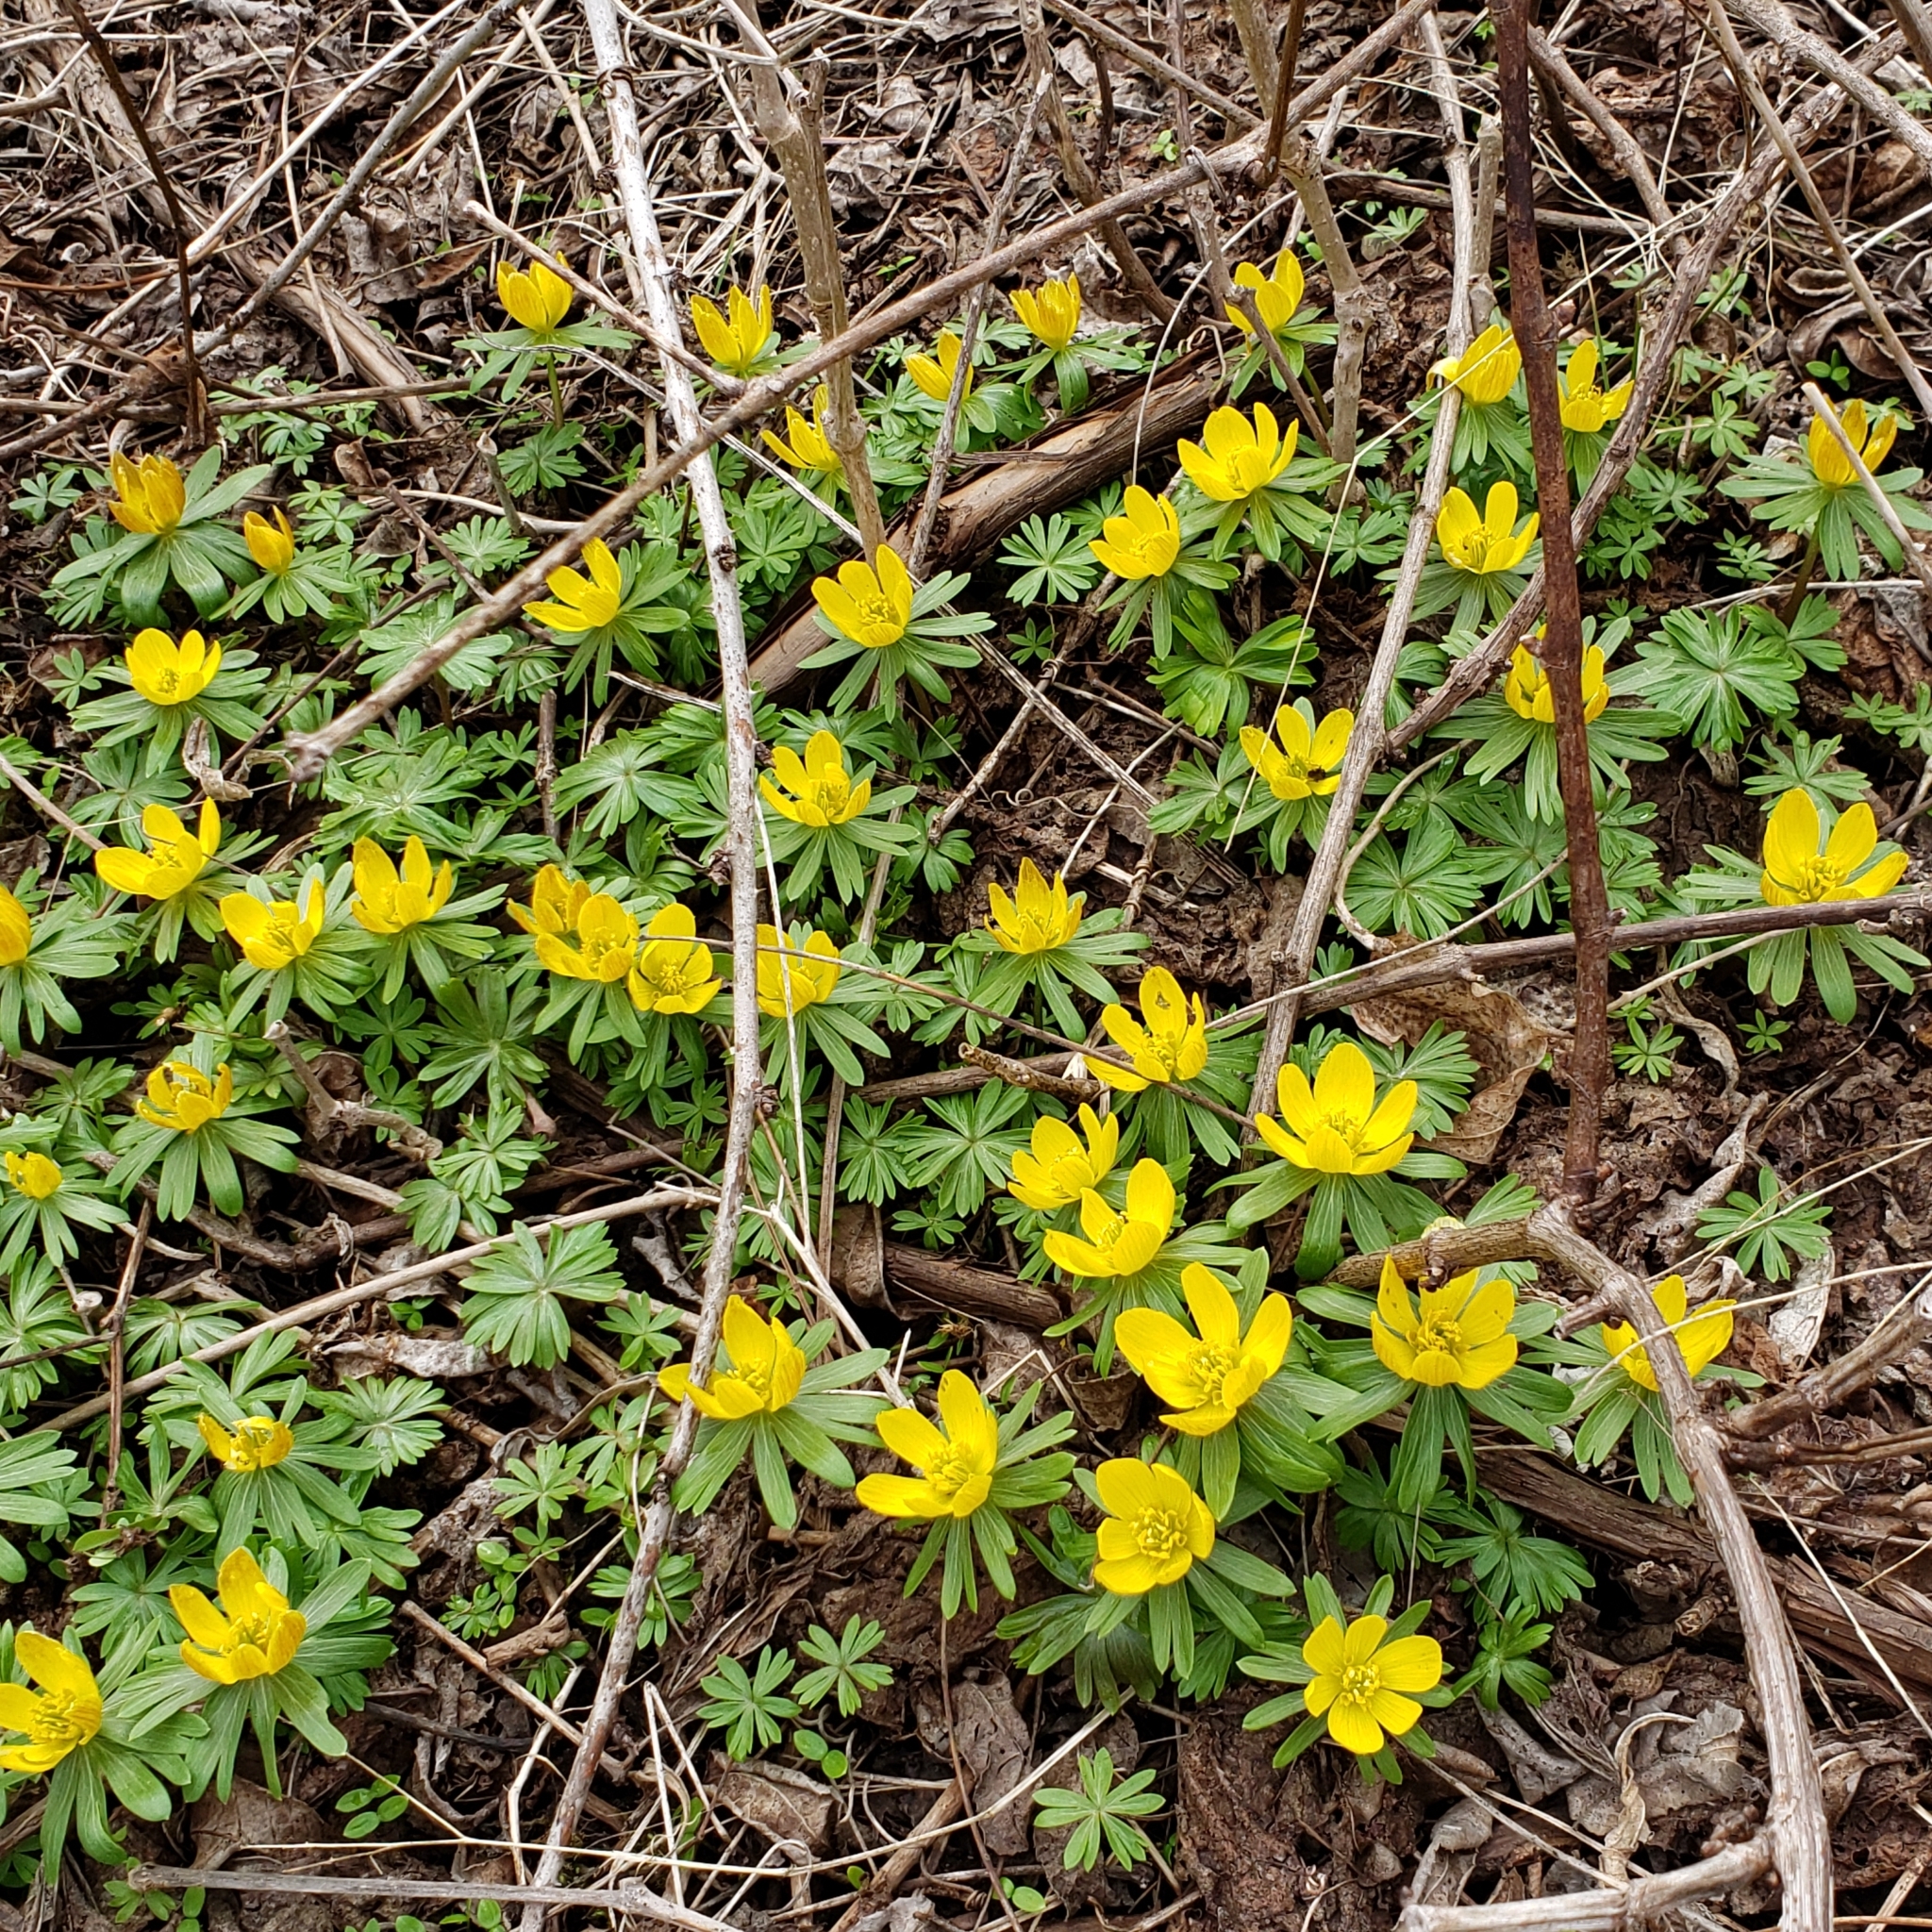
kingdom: Plantae
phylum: Tracheophyta
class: Magnoliopsida
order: Ranunculales
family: Ranunculaceae
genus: Eranthis
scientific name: Eranthis hyemalis
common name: Winter aconite
